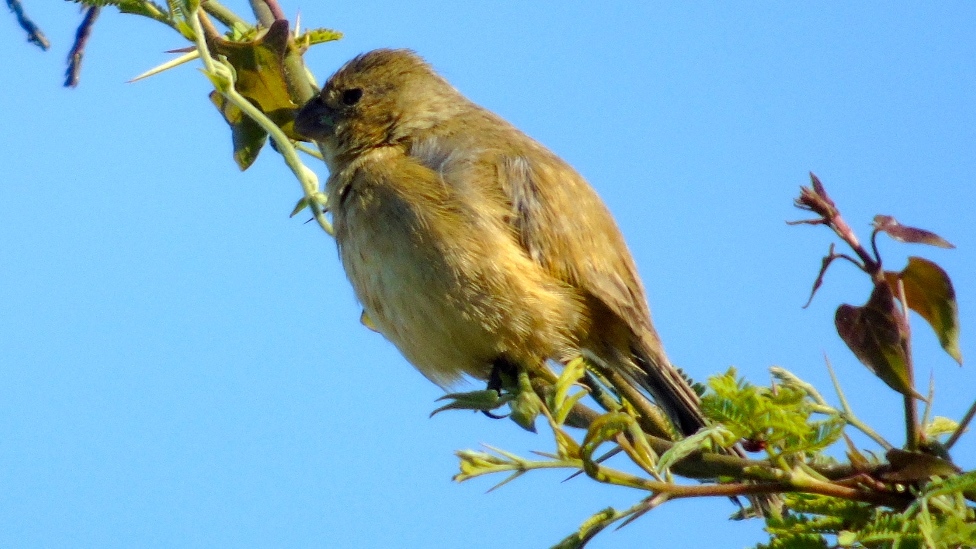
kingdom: Animalia
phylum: Chordata
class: Aves
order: Passeriformes
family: Thraupidae
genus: Sporophila
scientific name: Sporophila torqueola
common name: White-collared seedeater
